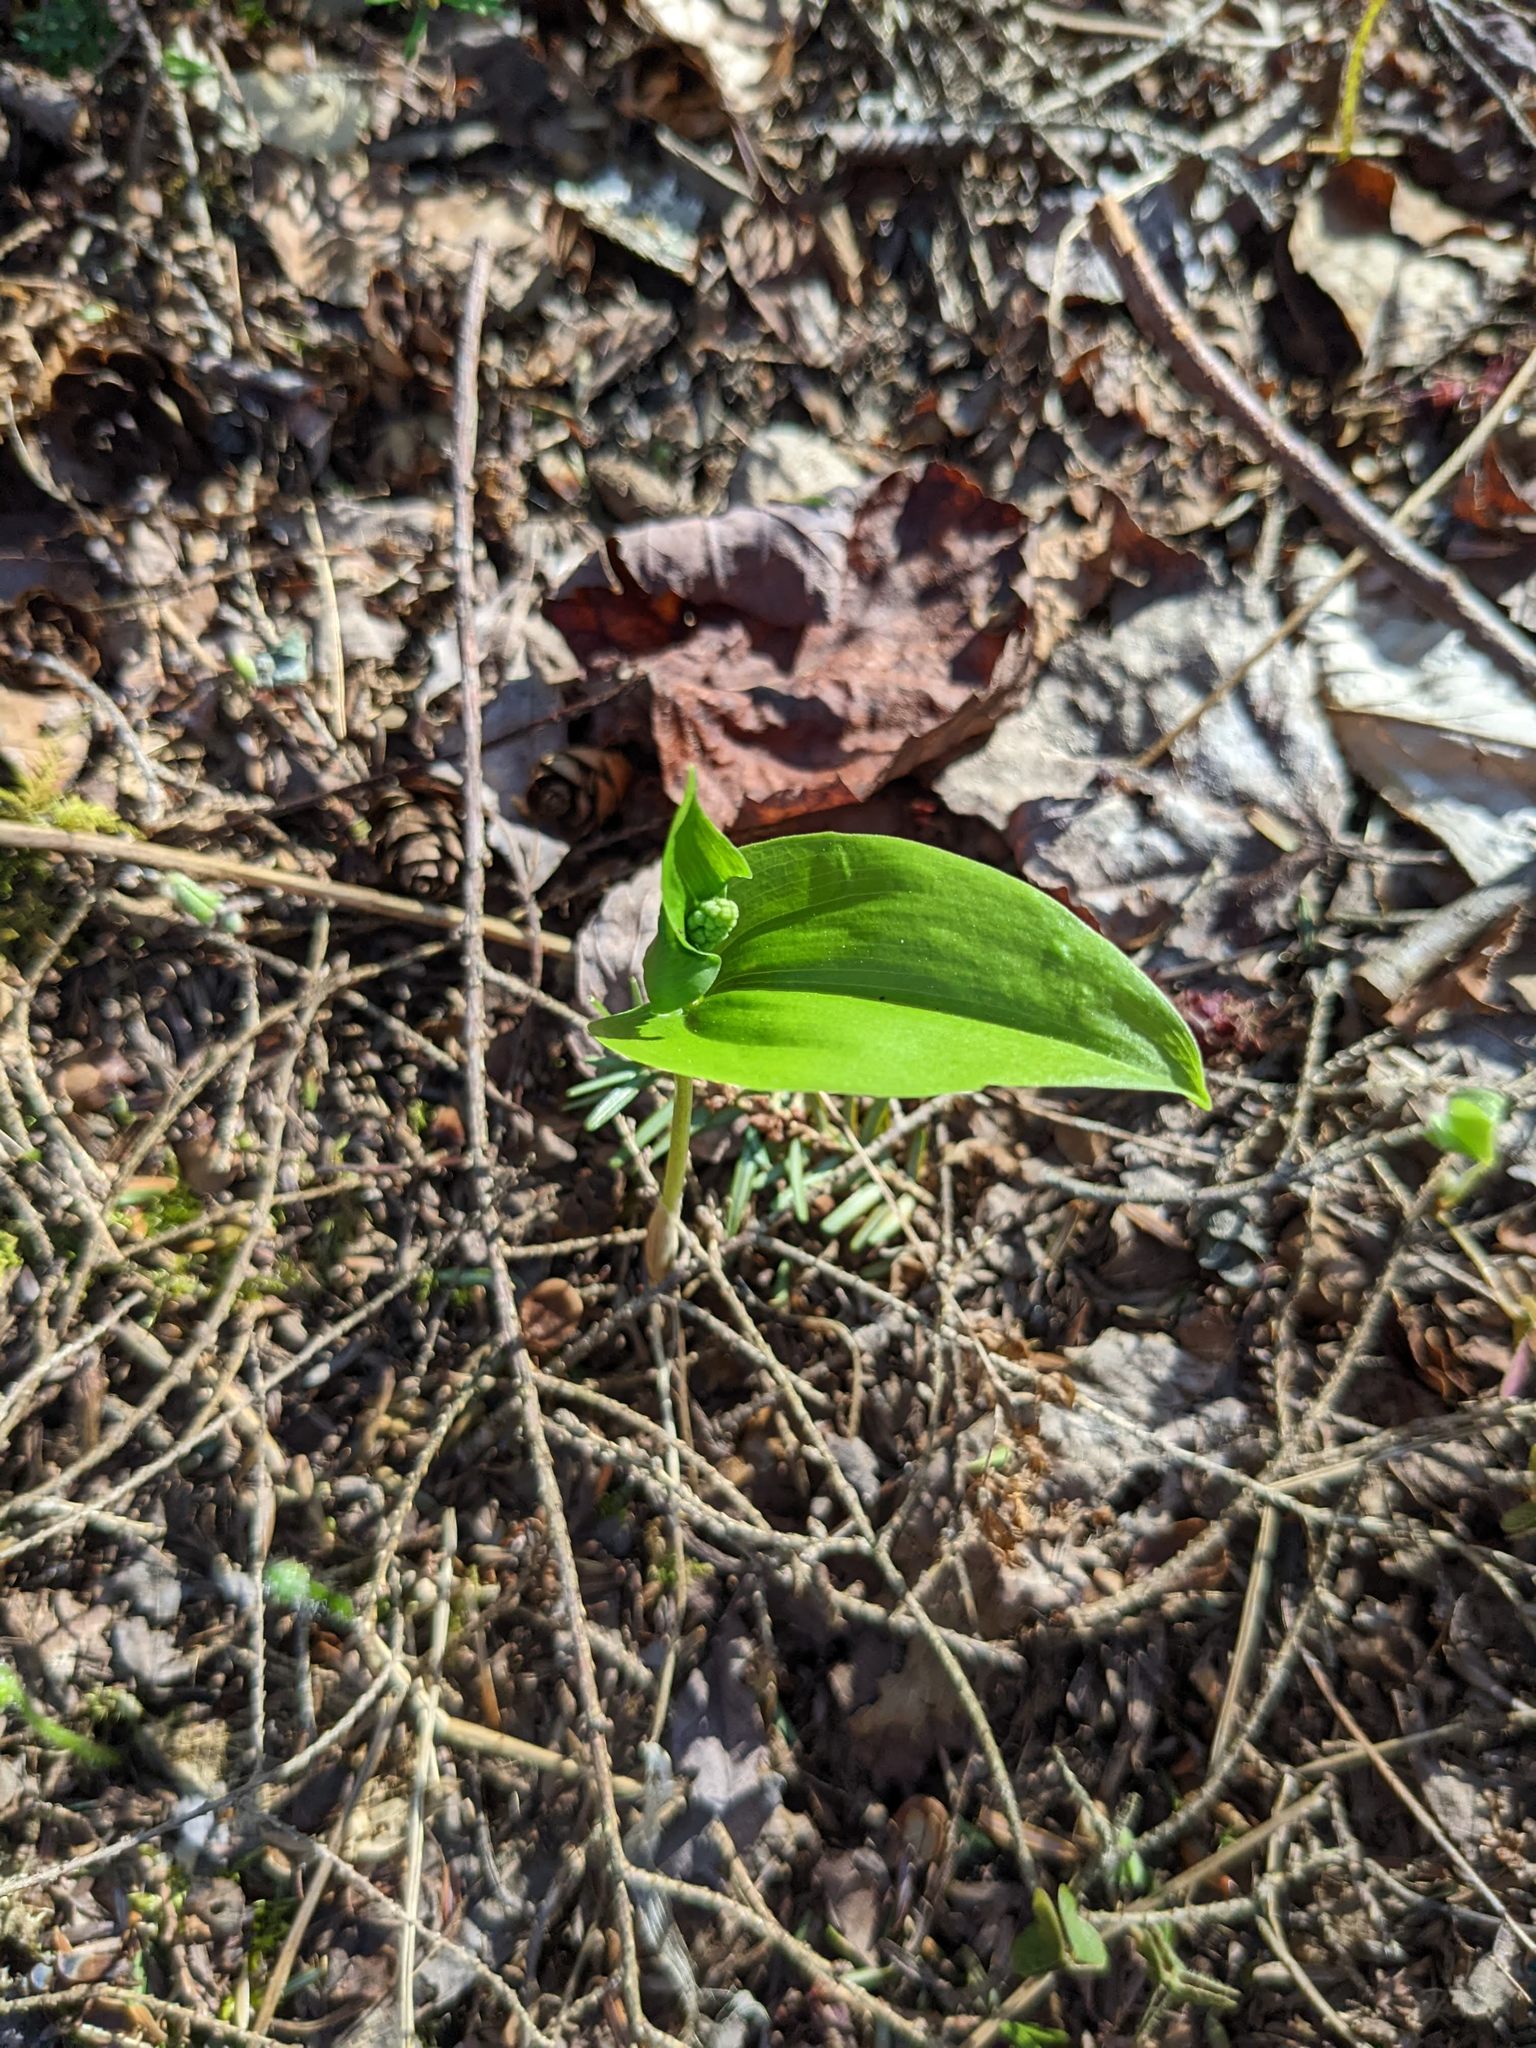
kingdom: Plantae
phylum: Tracheophyta
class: Liliopsida
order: Asparagales
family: Asparagaceae
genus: Maianthemum
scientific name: Maianthemum canadense
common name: False lily-of-the-valley
